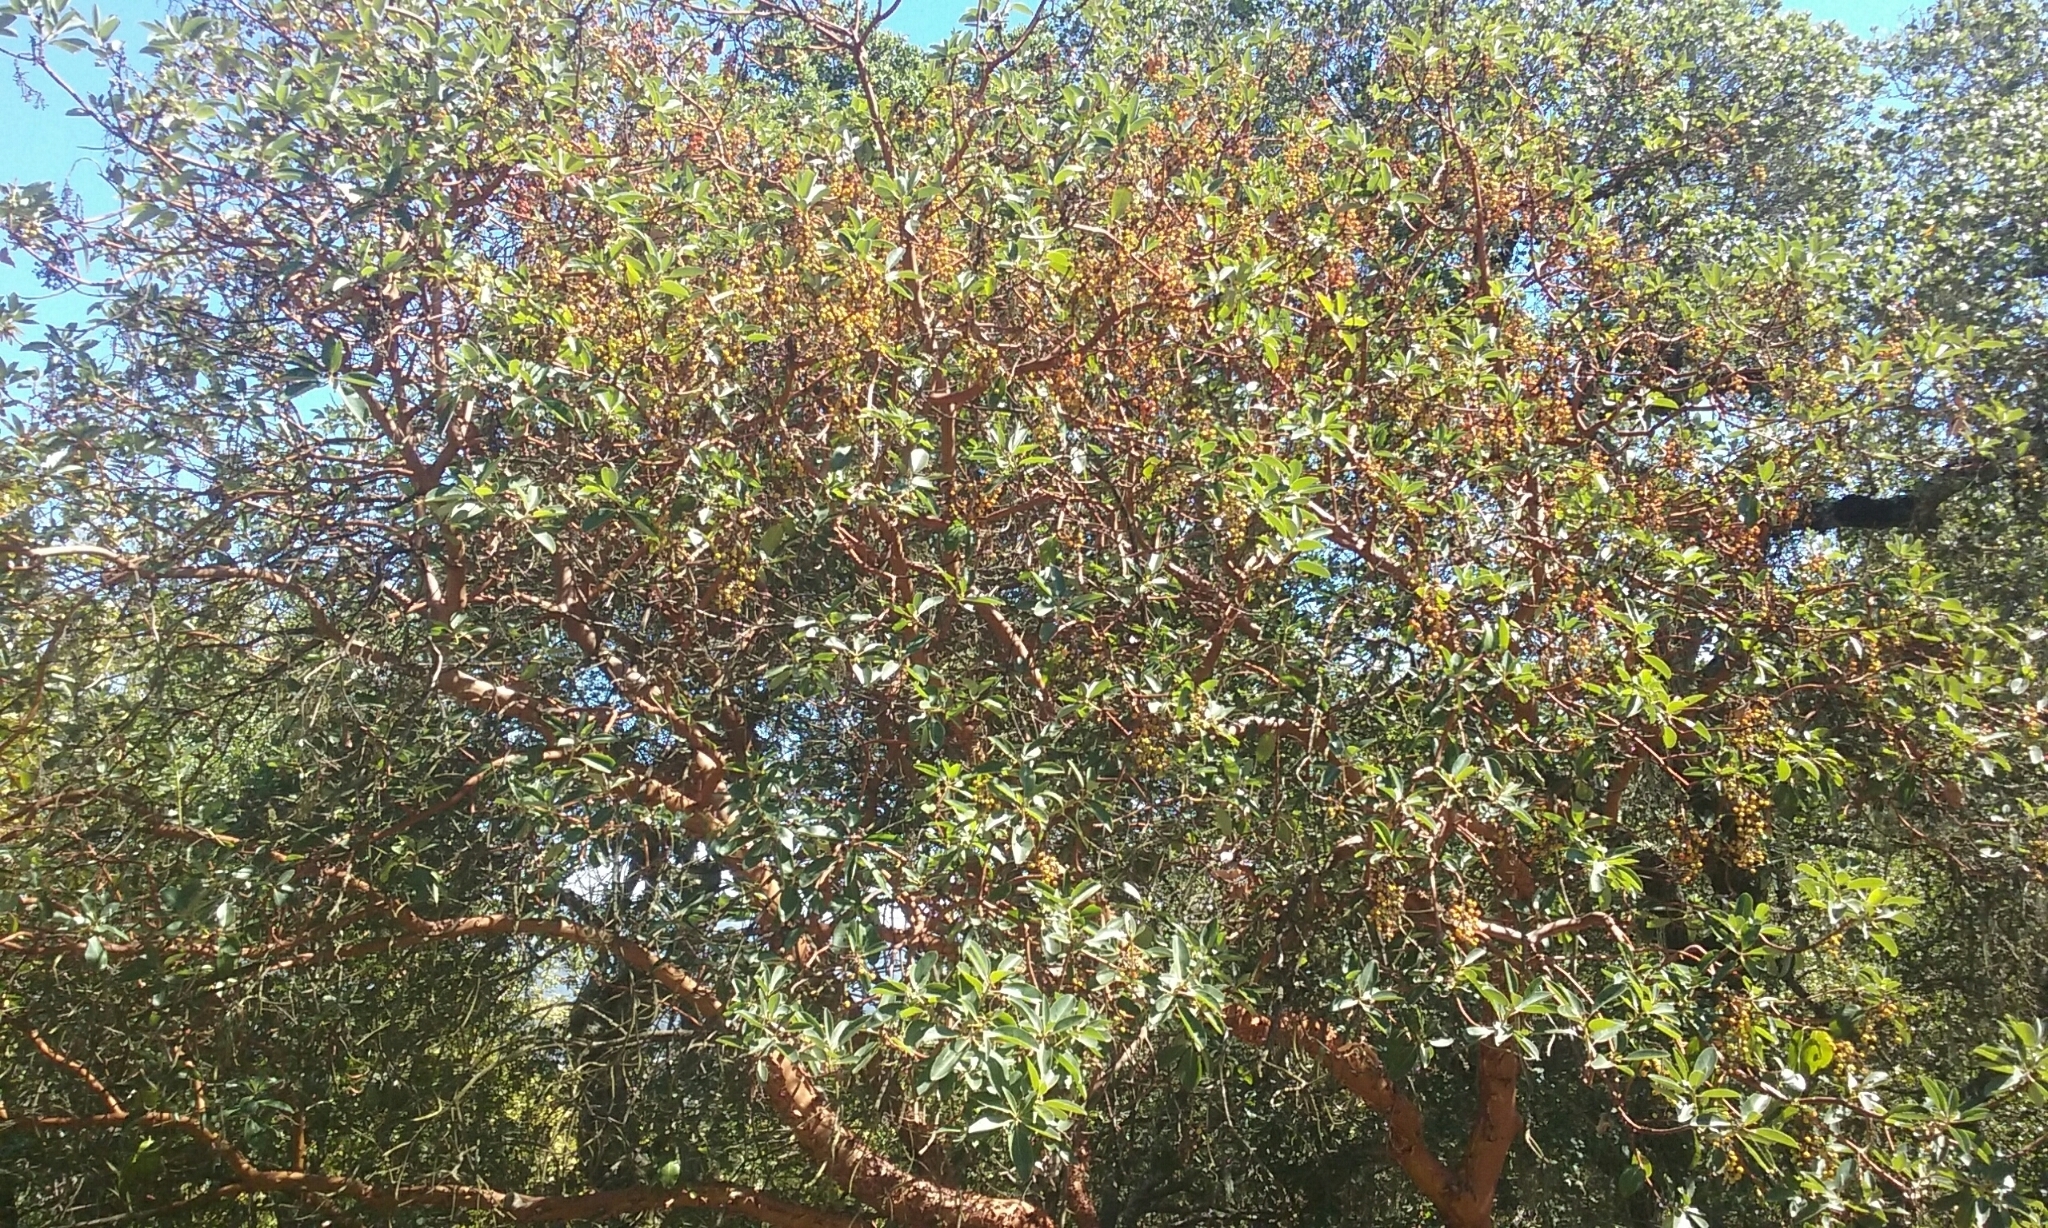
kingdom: Plantae
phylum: Tracheophyta
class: Magnoliopsida
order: Ericales
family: Ericaceae
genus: Arbutus
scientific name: Arbutus menziesii
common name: Pacific madrone
